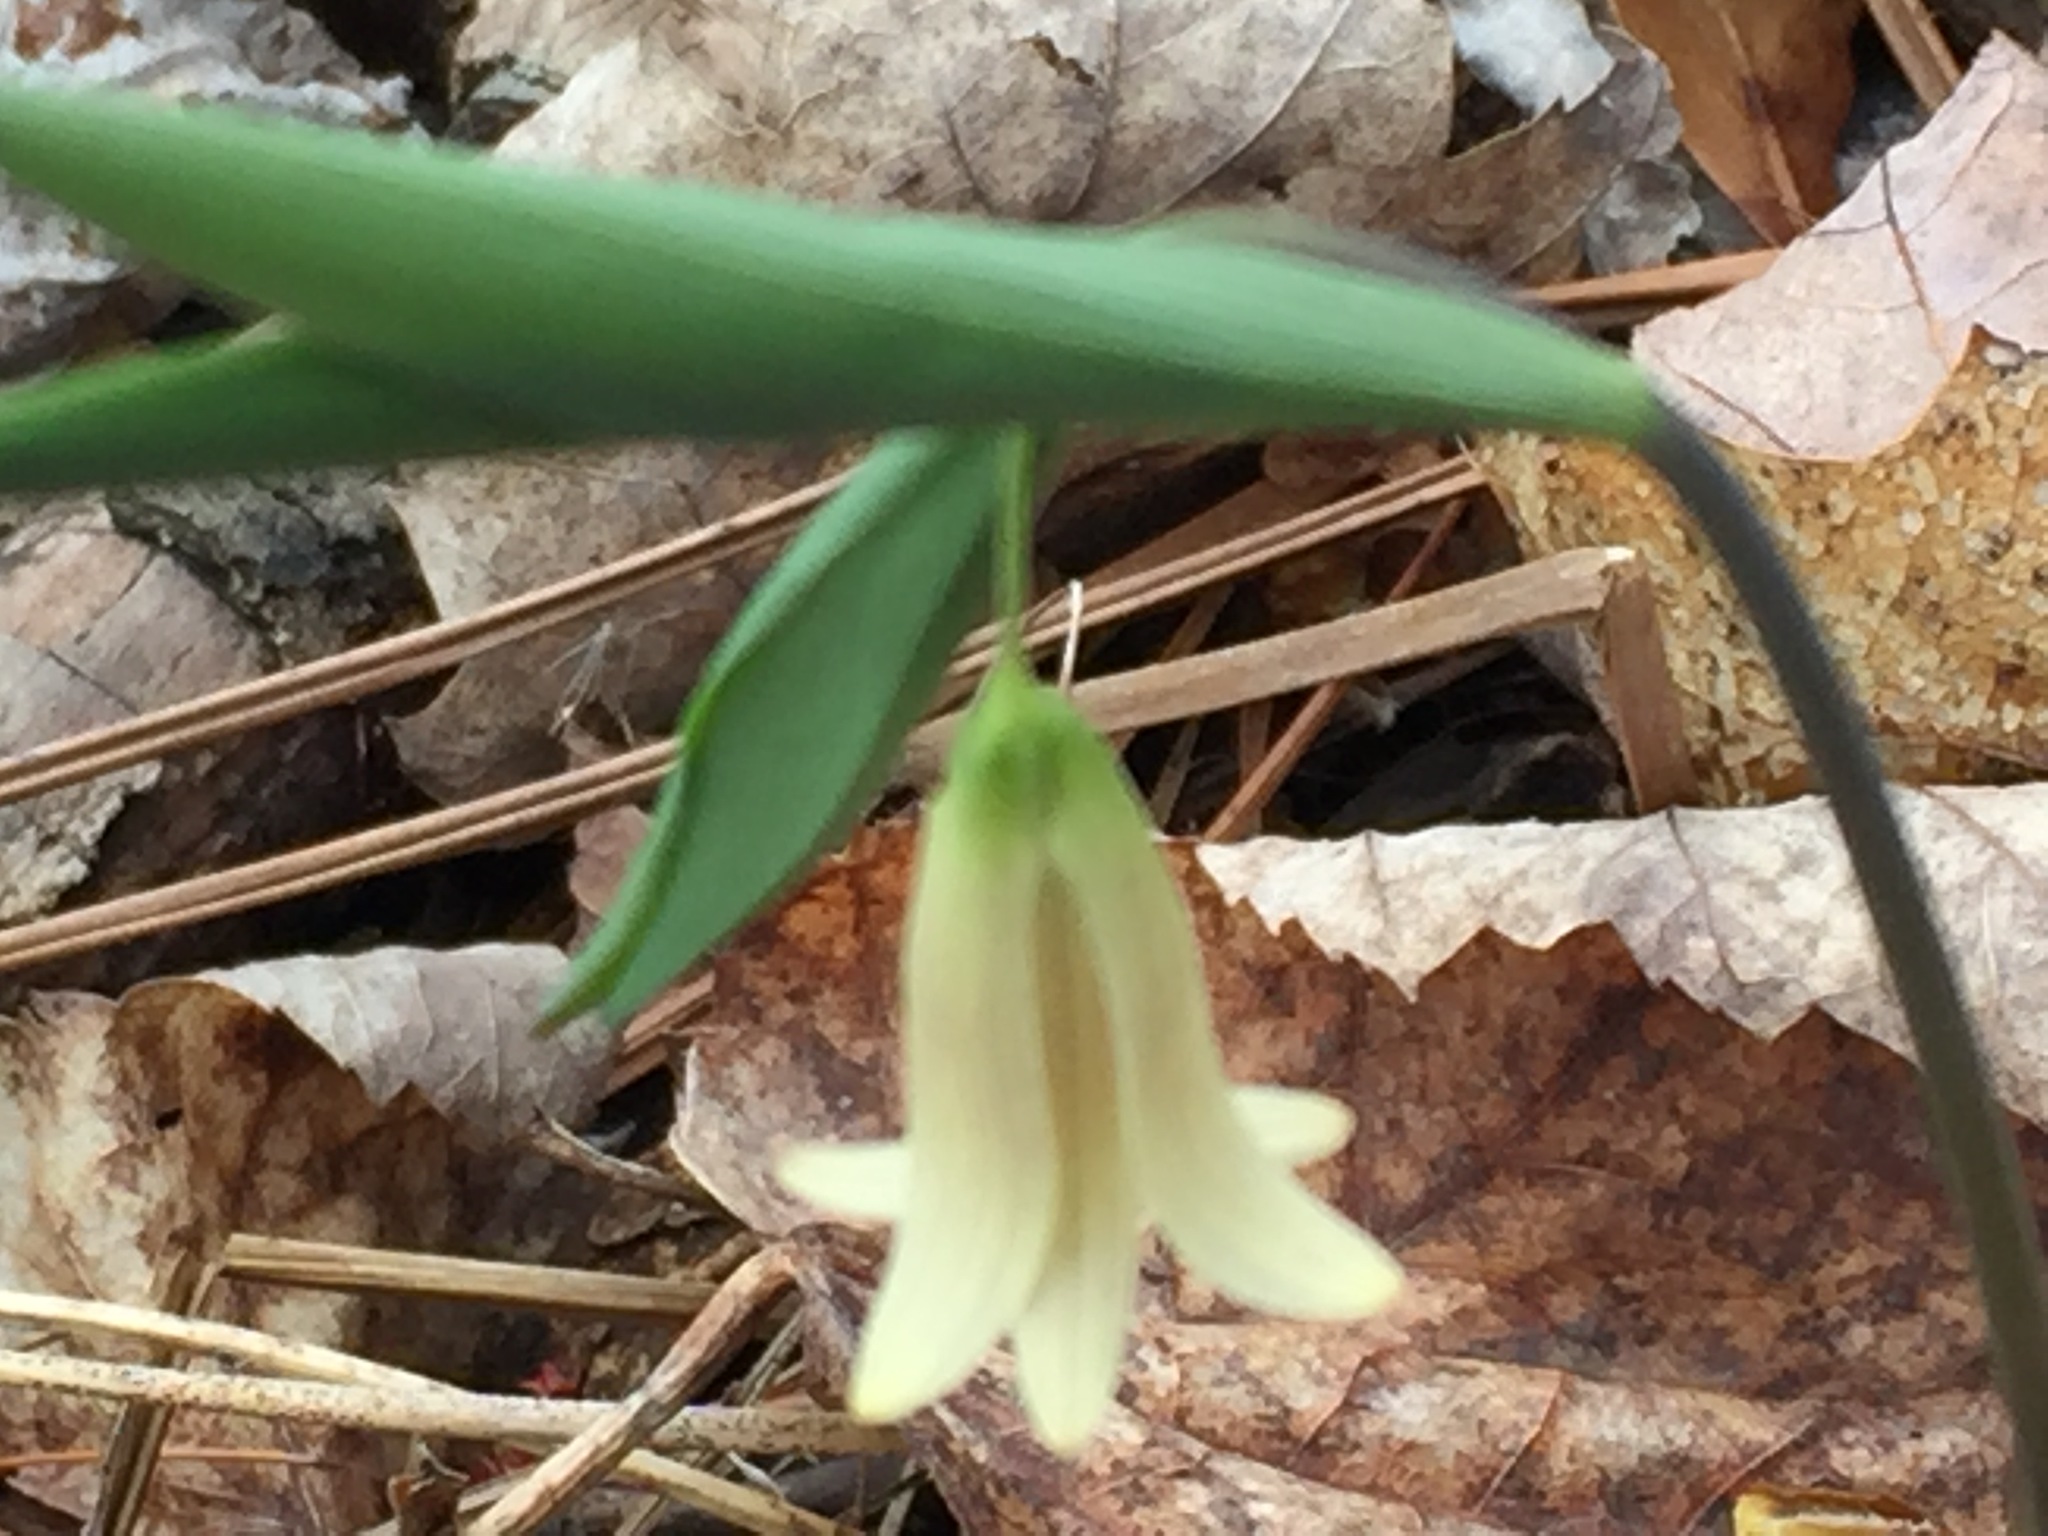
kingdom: Plantae
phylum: Tracheophyta
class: Liliopsida
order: Liliales
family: Colchicaceae
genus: Uvularia
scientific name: Uvularia sessilifolia
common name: Straw-lily
